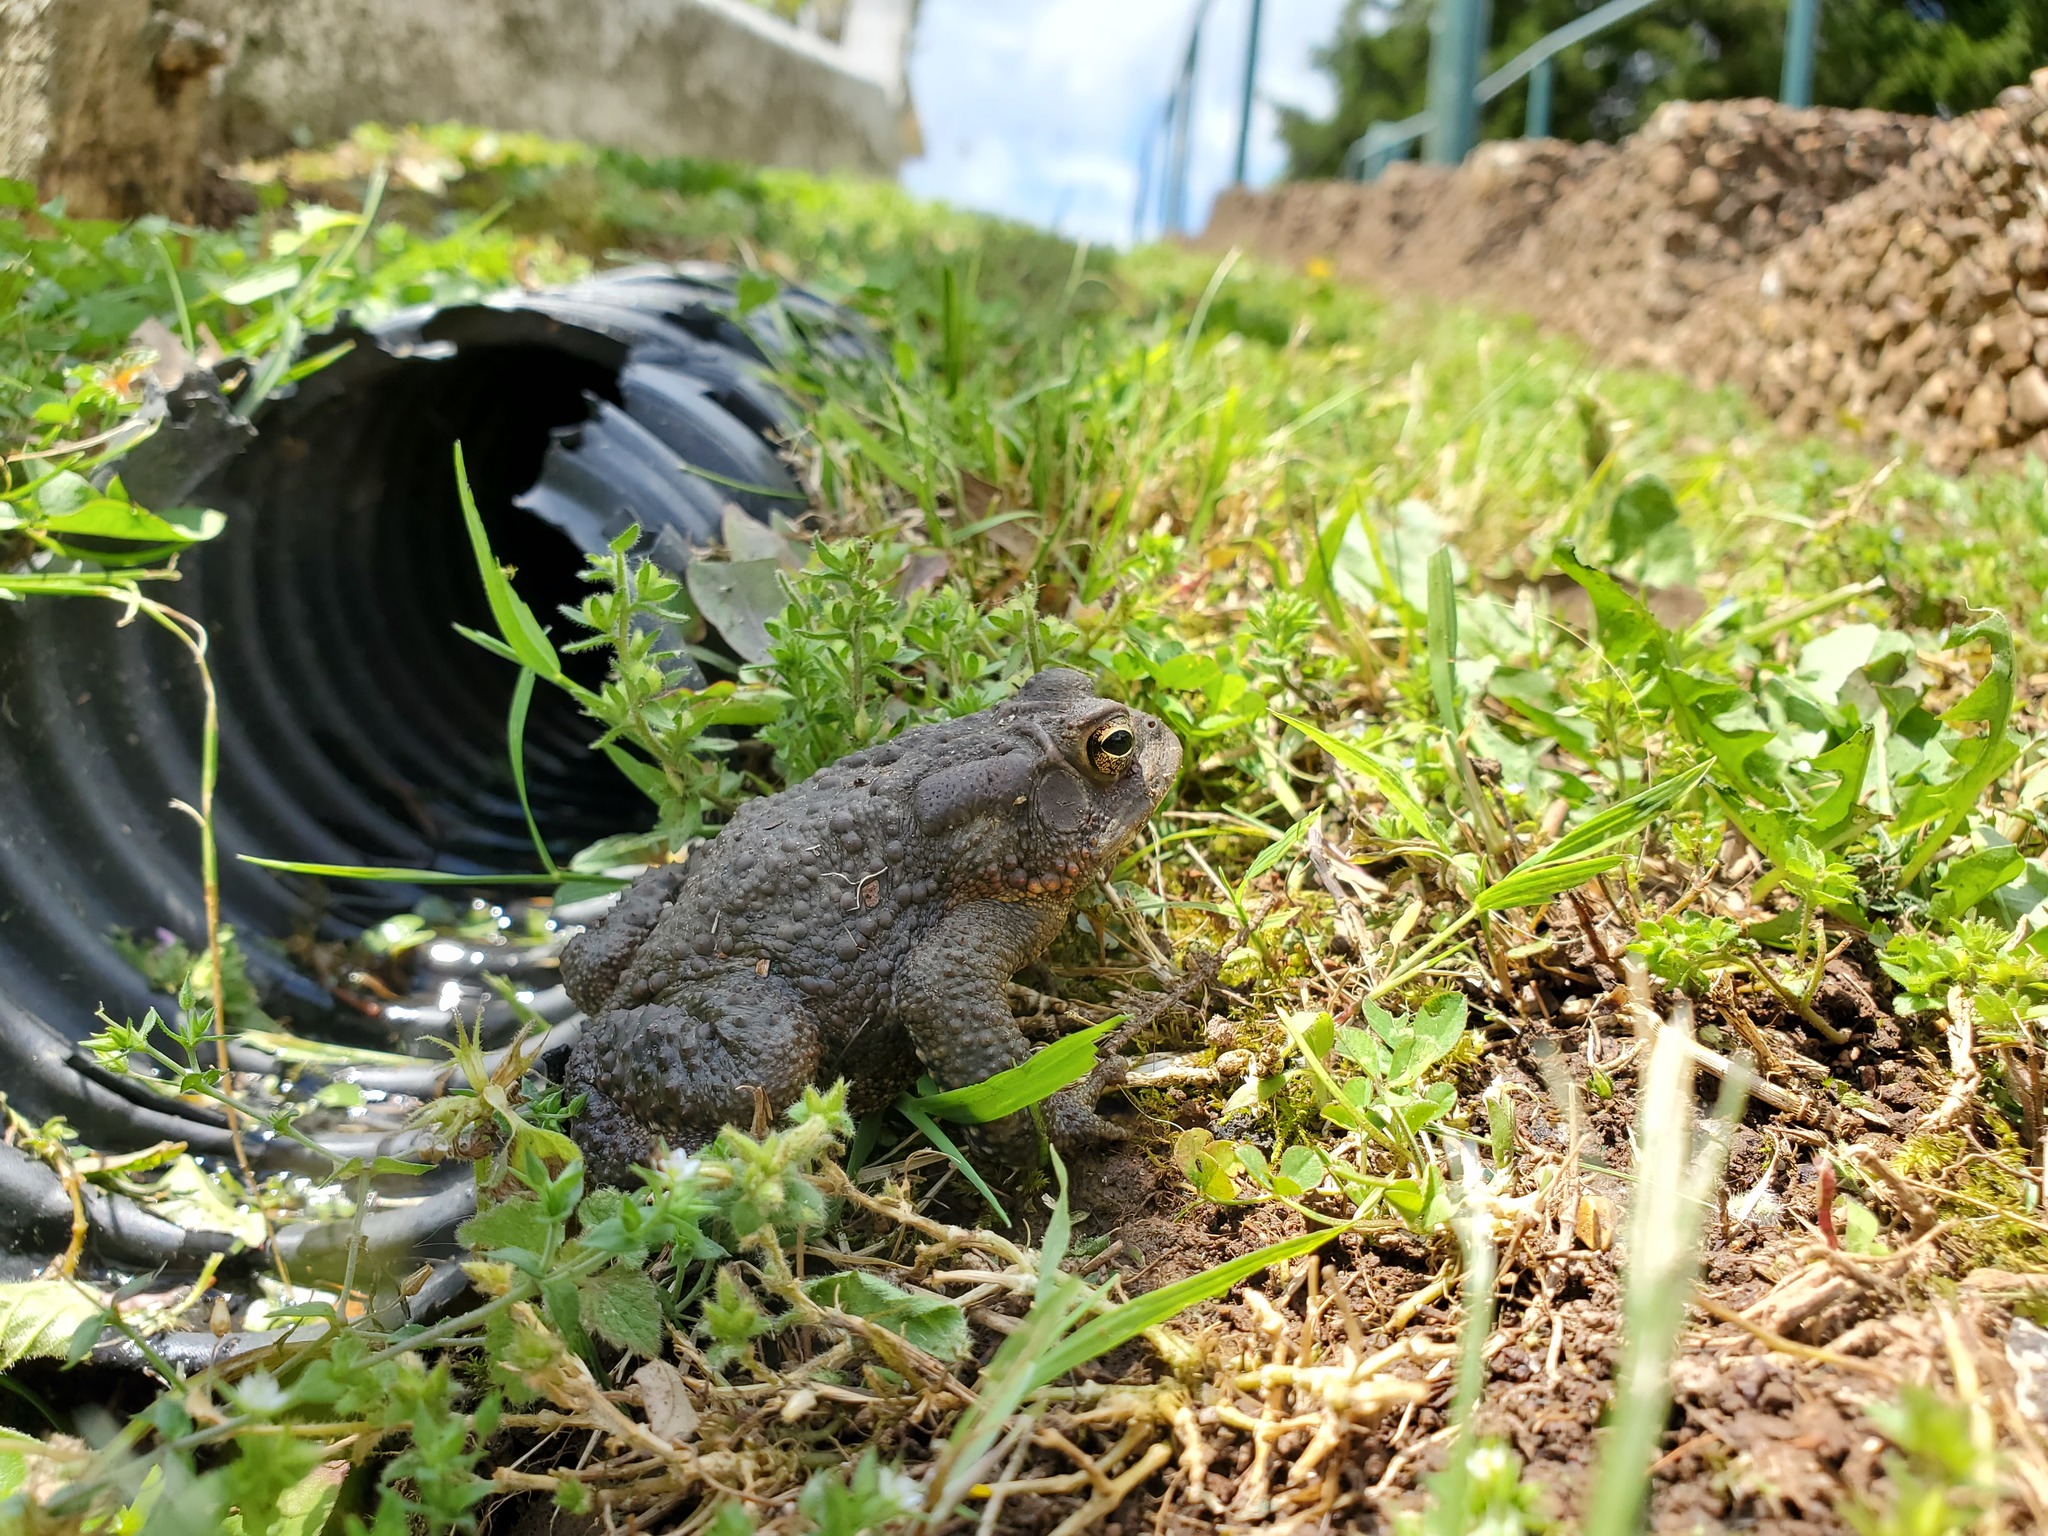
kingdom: Animalia
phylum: Chordata
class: Amphibia
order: Anura
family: Bufonidae
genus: Anaxyrus
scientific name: Anaxyrus americanus
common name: American toad
